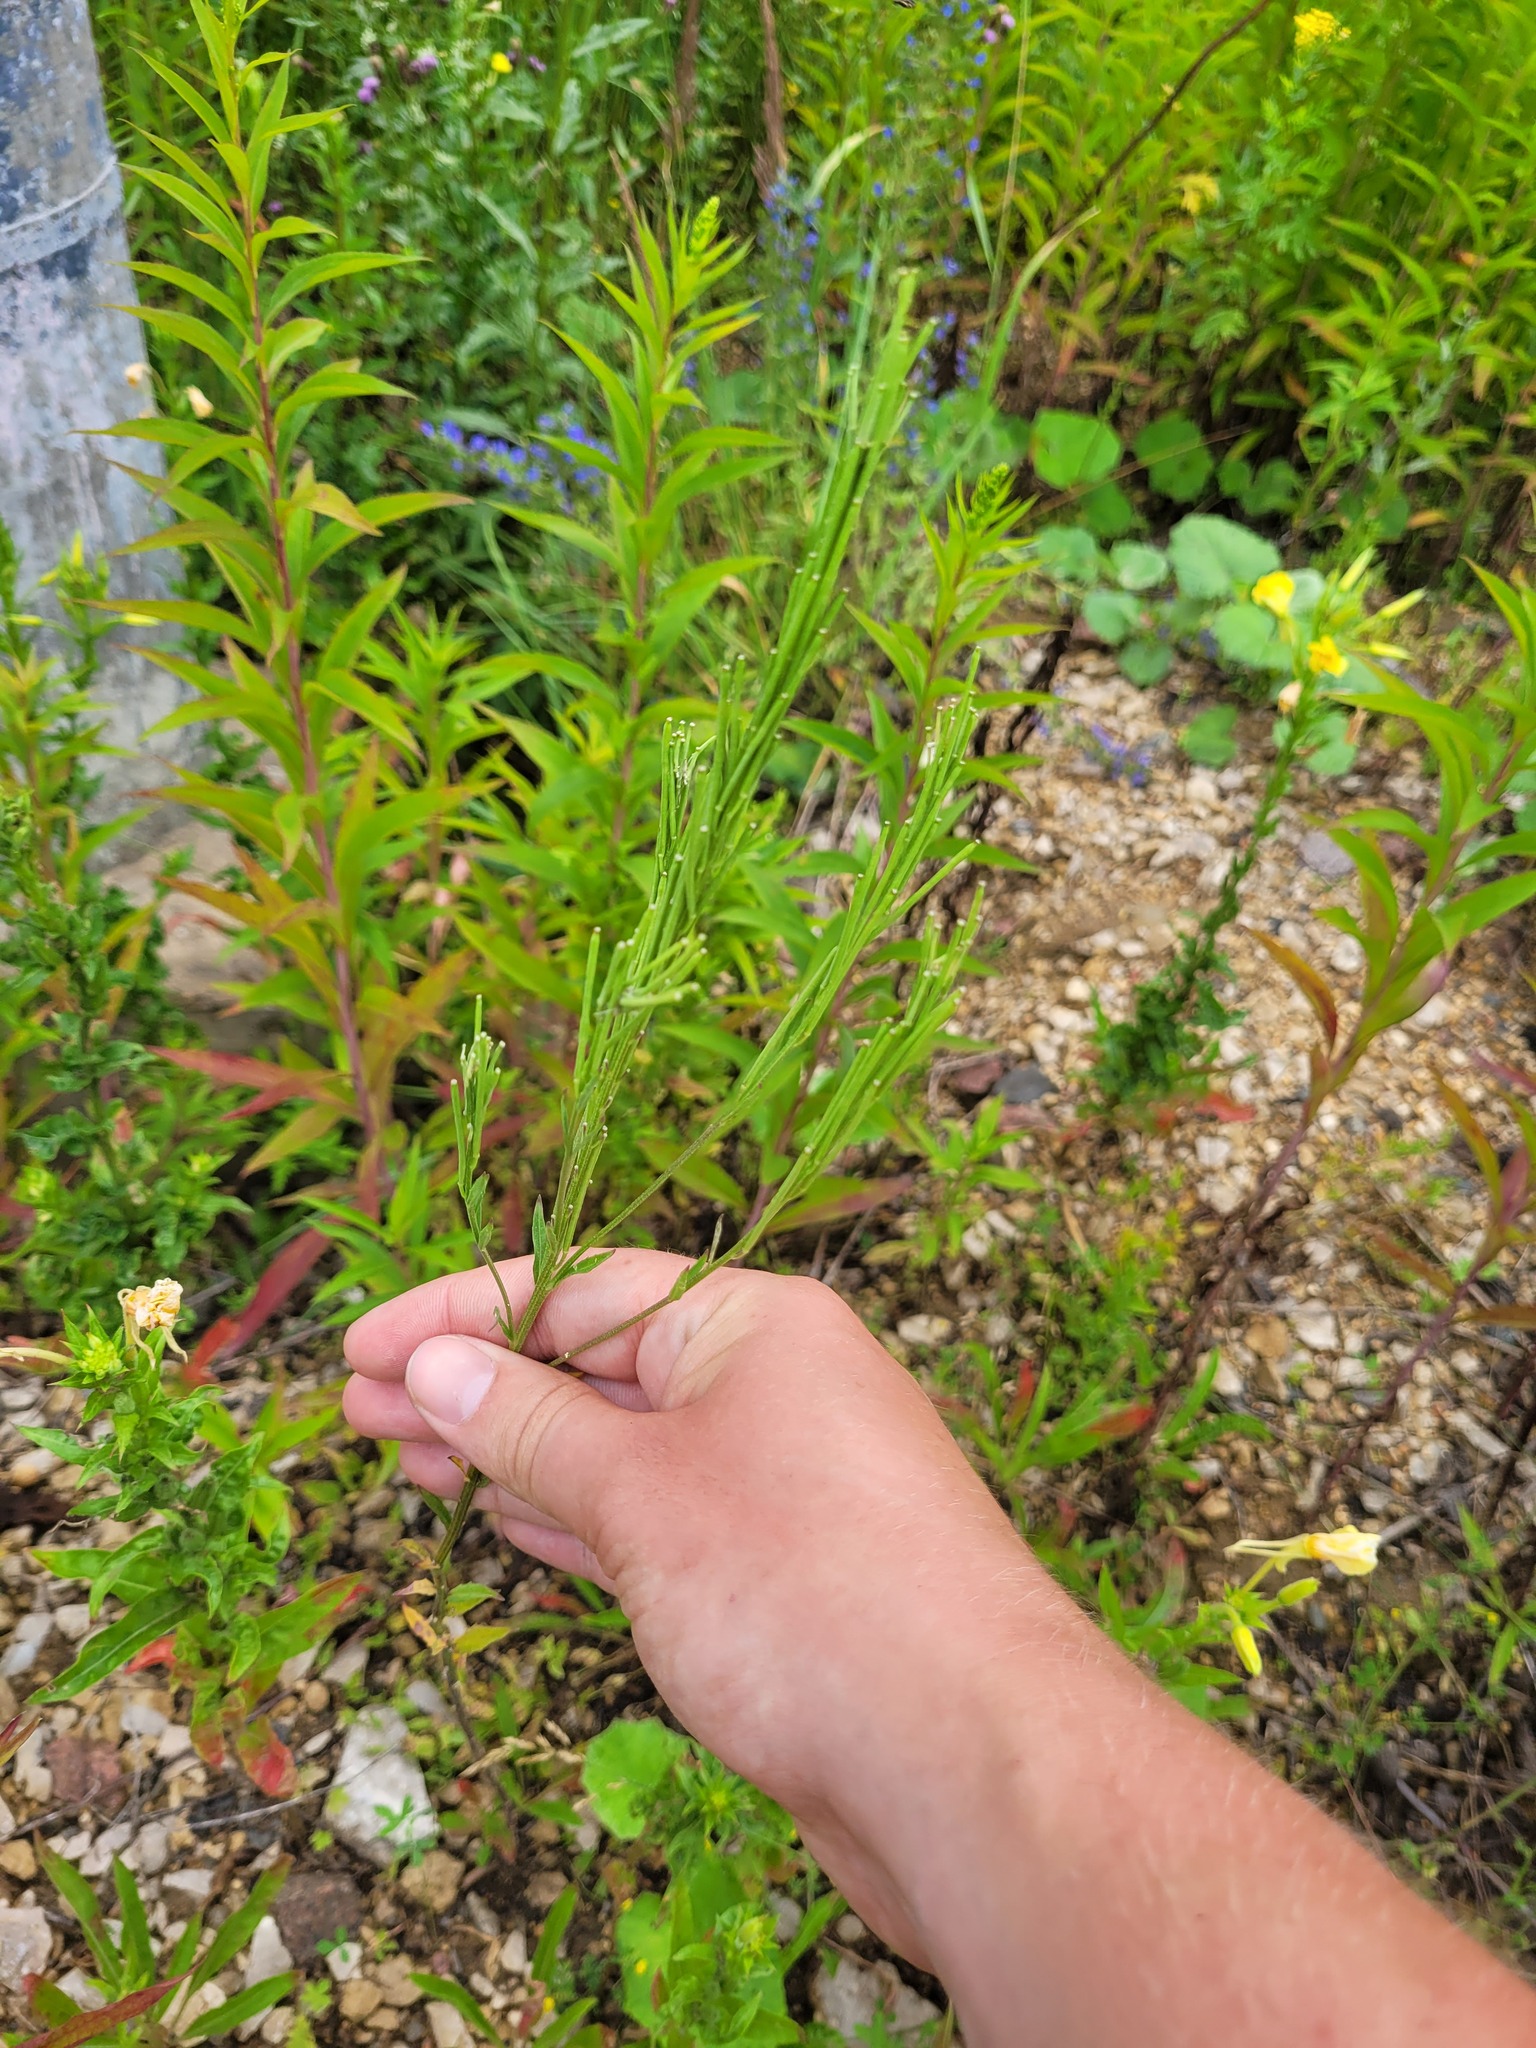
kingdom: Plantae
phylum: Tracheophyta
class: Magnoliopsida
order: Brassicales
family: Brassicaceae
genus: Erysimum
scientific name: Erysimum hieraciifolium
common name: European wallflower
